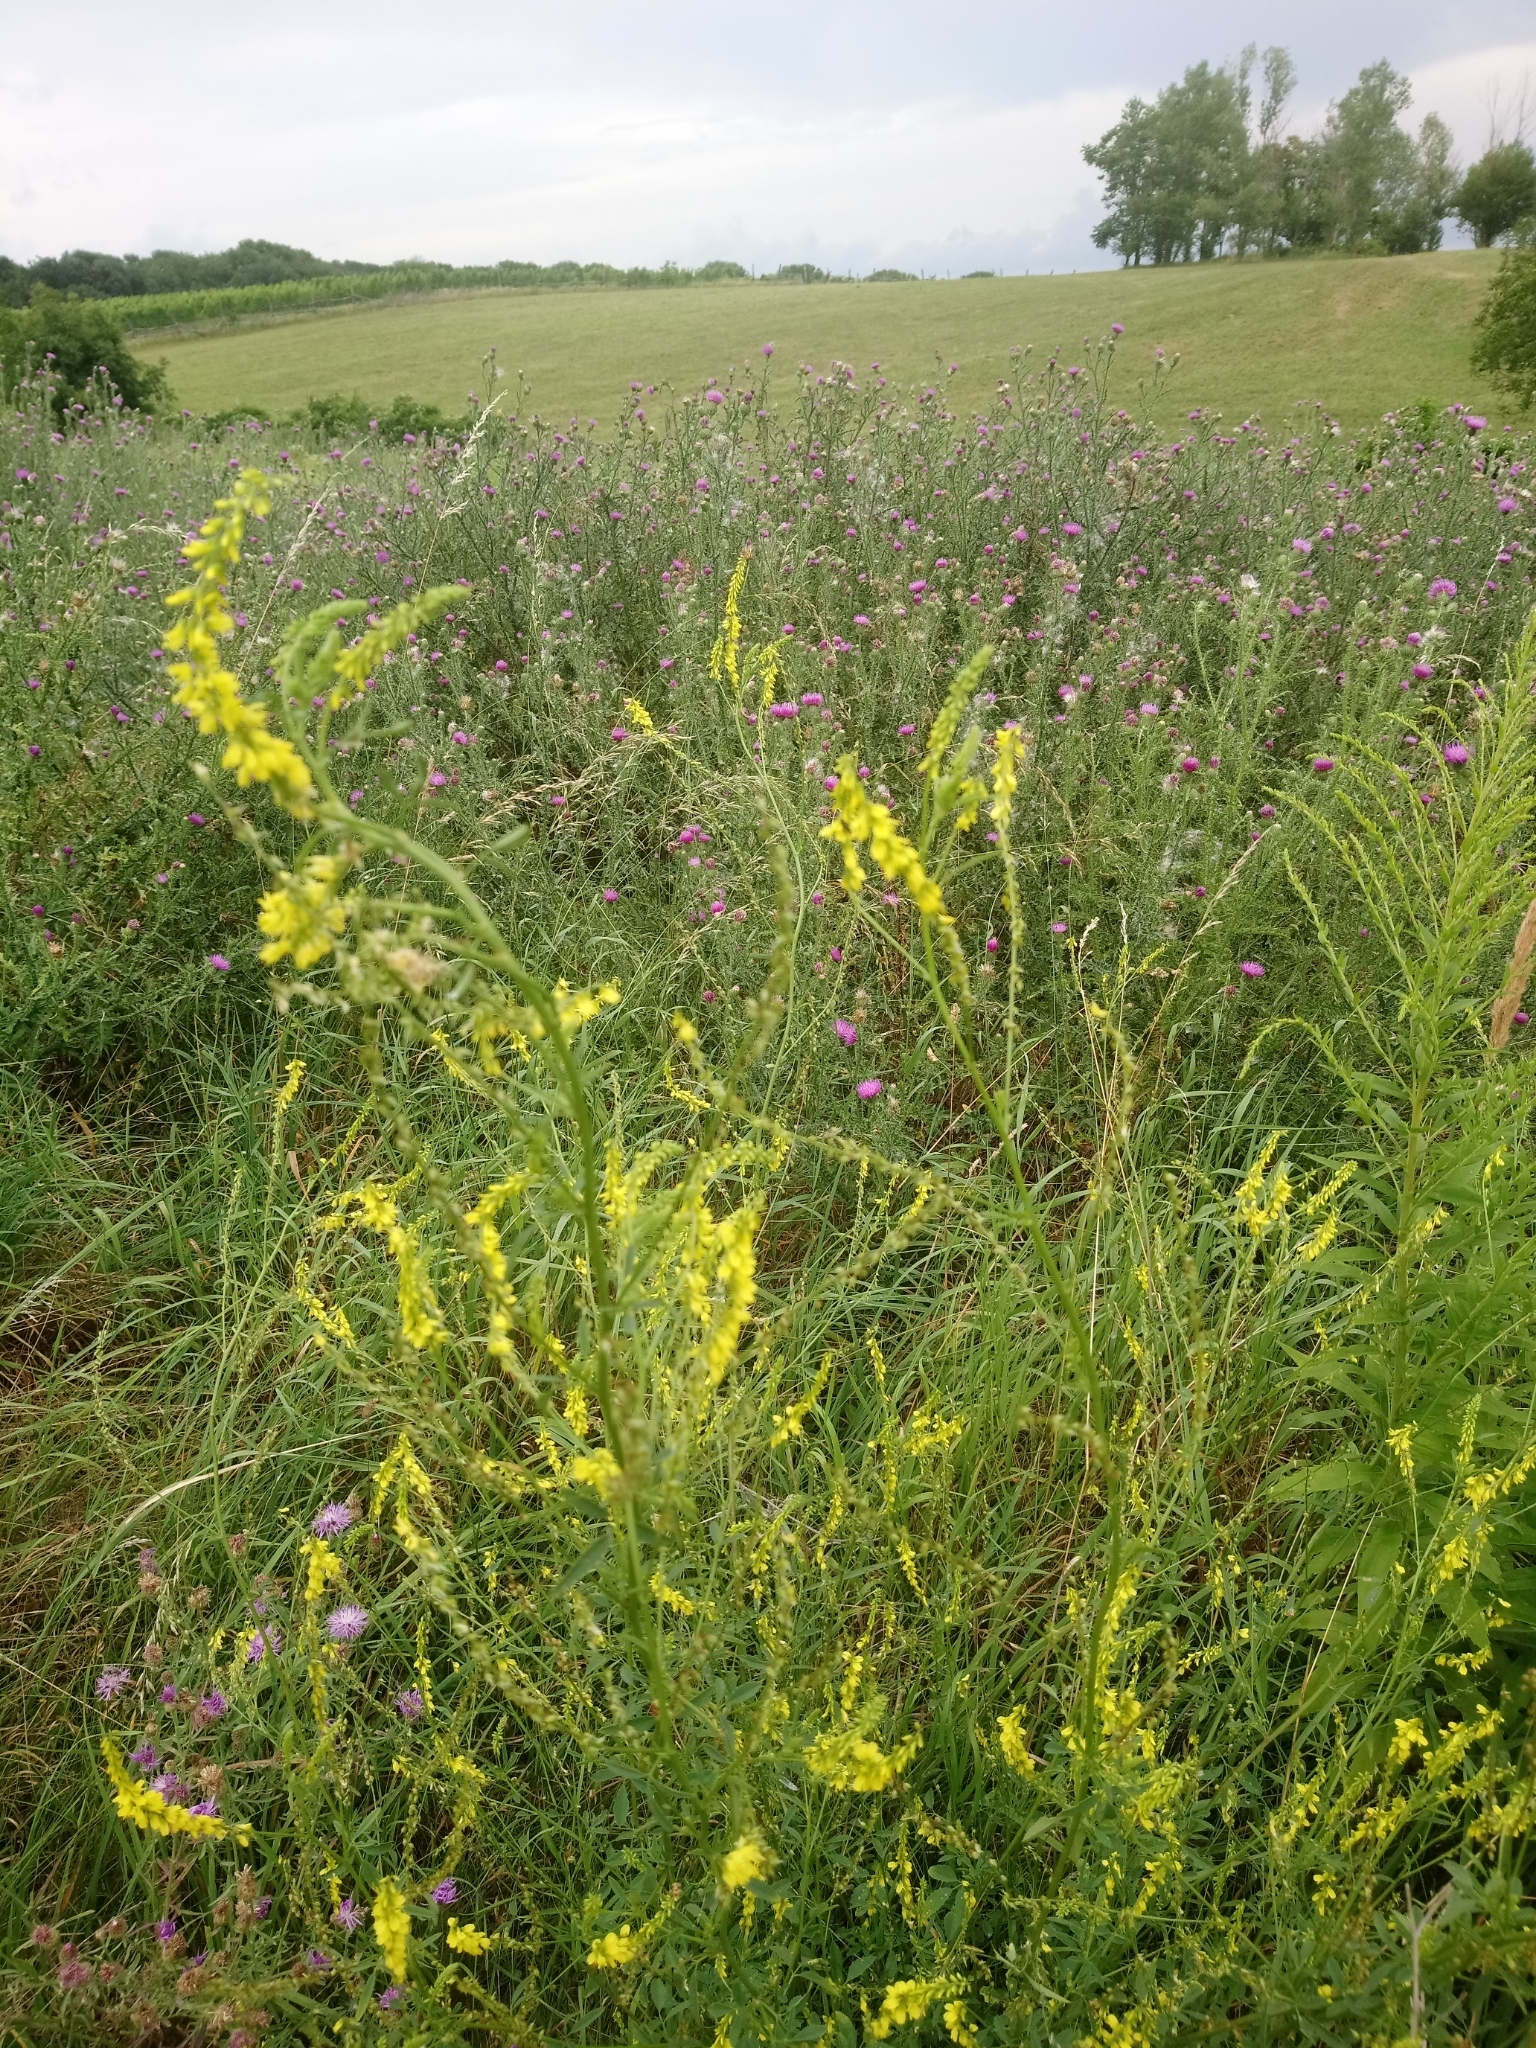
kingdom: Plantae
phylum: Tracheophyta
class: Magnoliopsida
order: Fabales
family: Fabaceae
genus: Melilotus
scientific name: Melilotus officinalis
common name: Sweetclover
